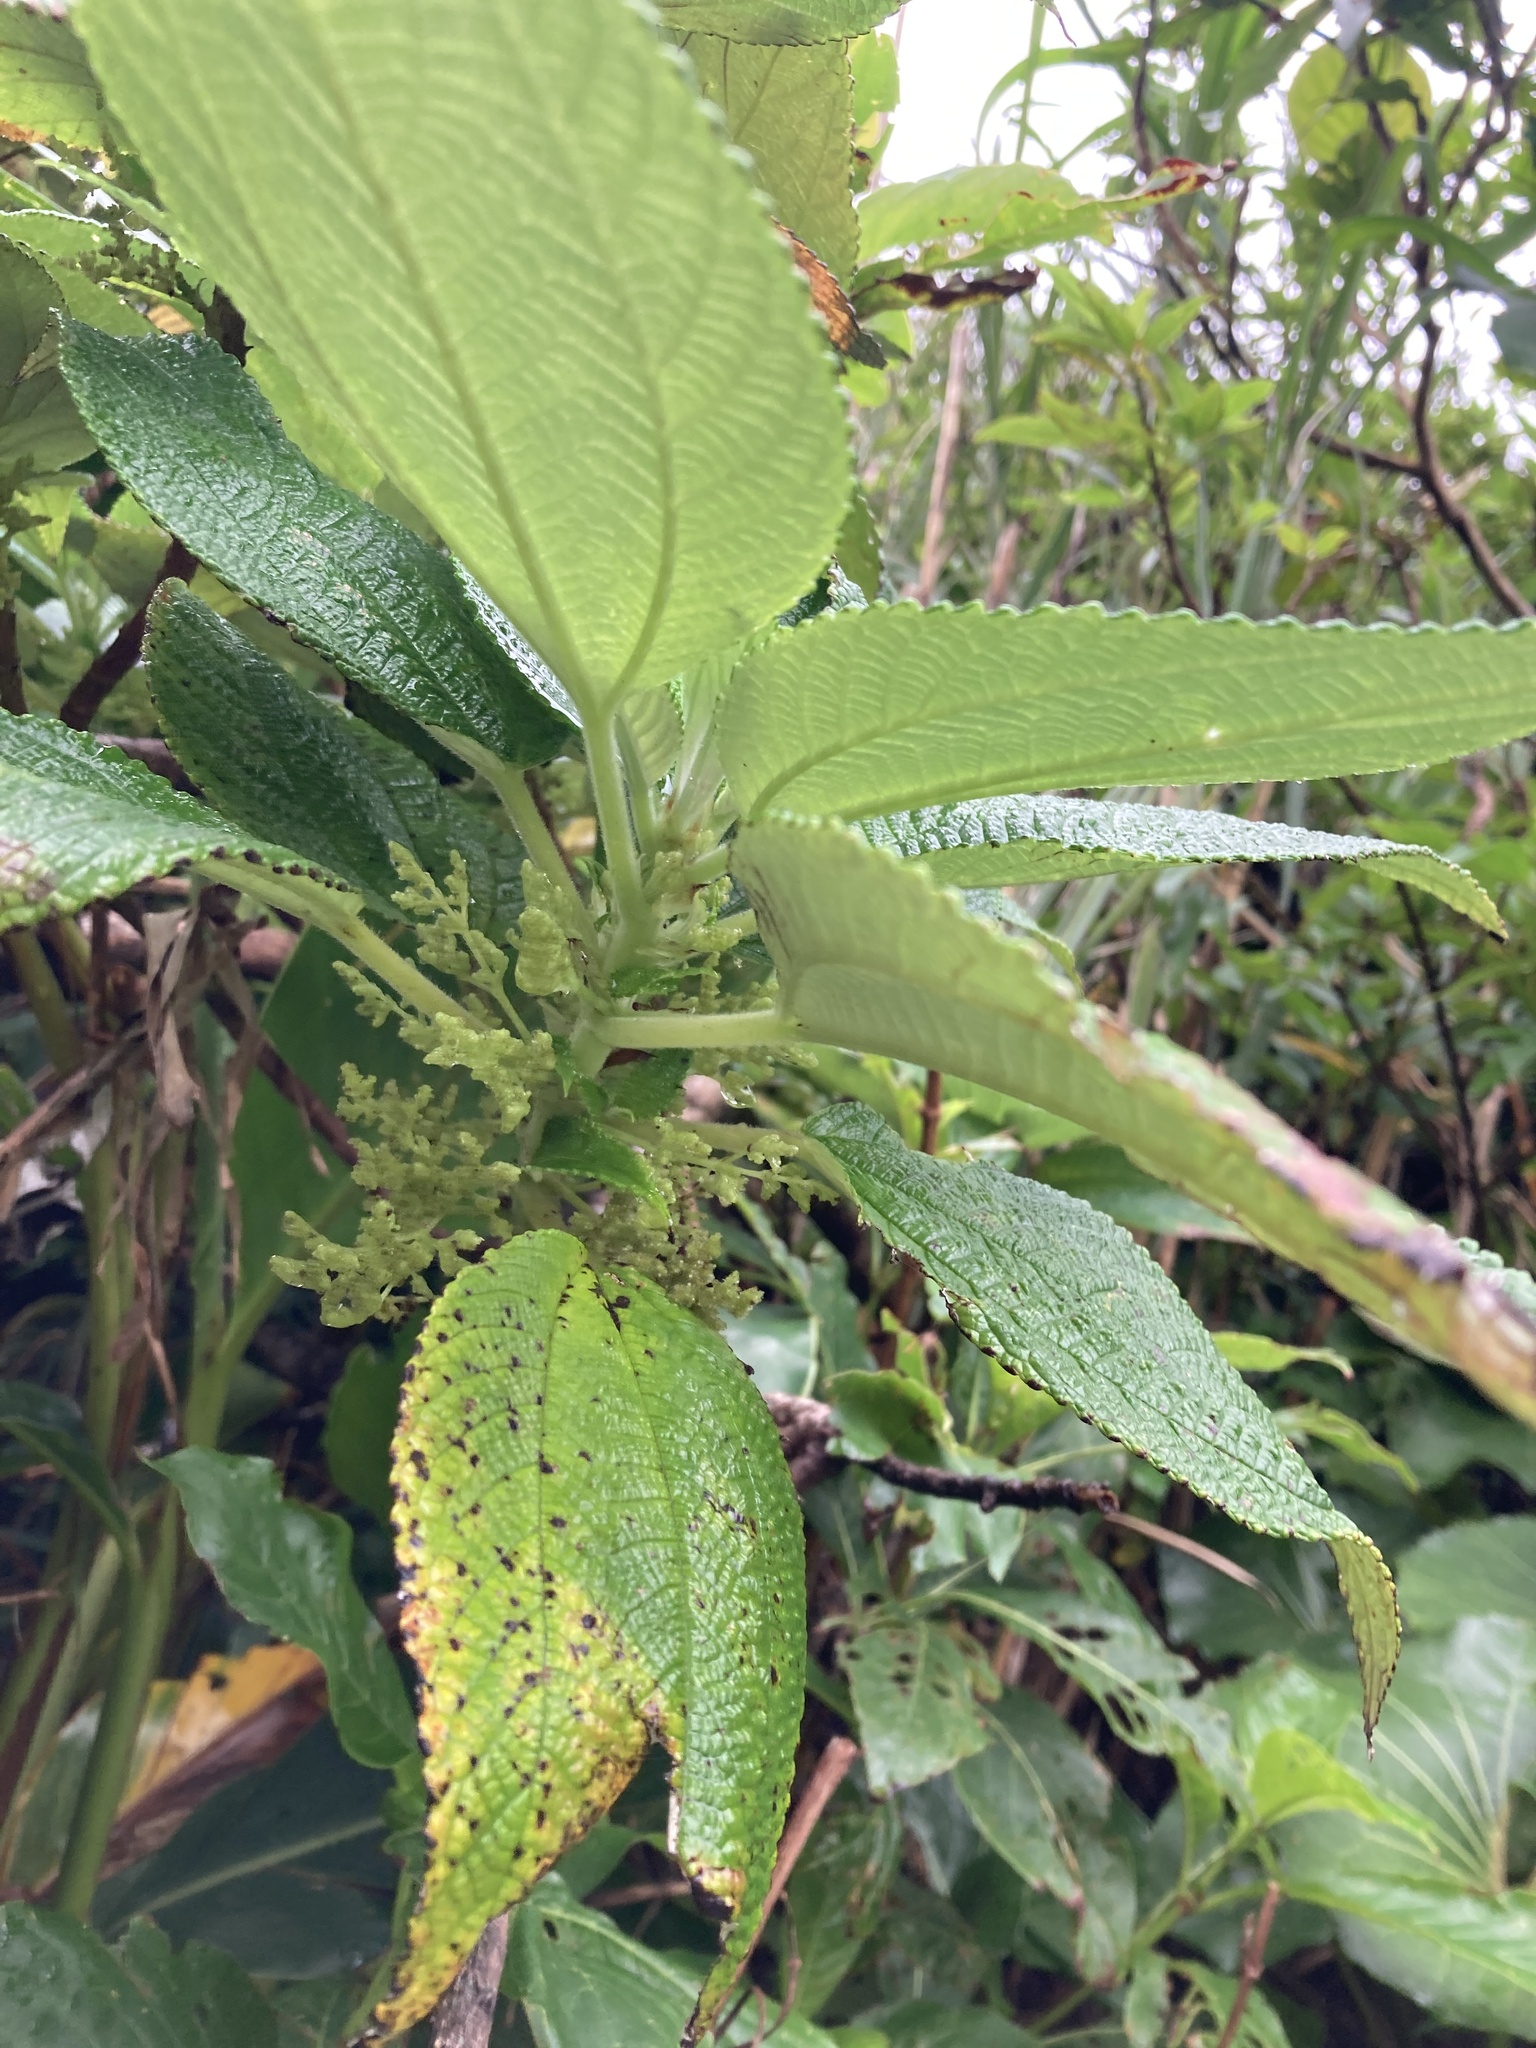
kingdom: Plantae
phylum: Tracheophyta
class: Magnoliopsida
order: Rosales
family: Urticaceae
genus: Maoutia
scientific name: Maoutia setosa
